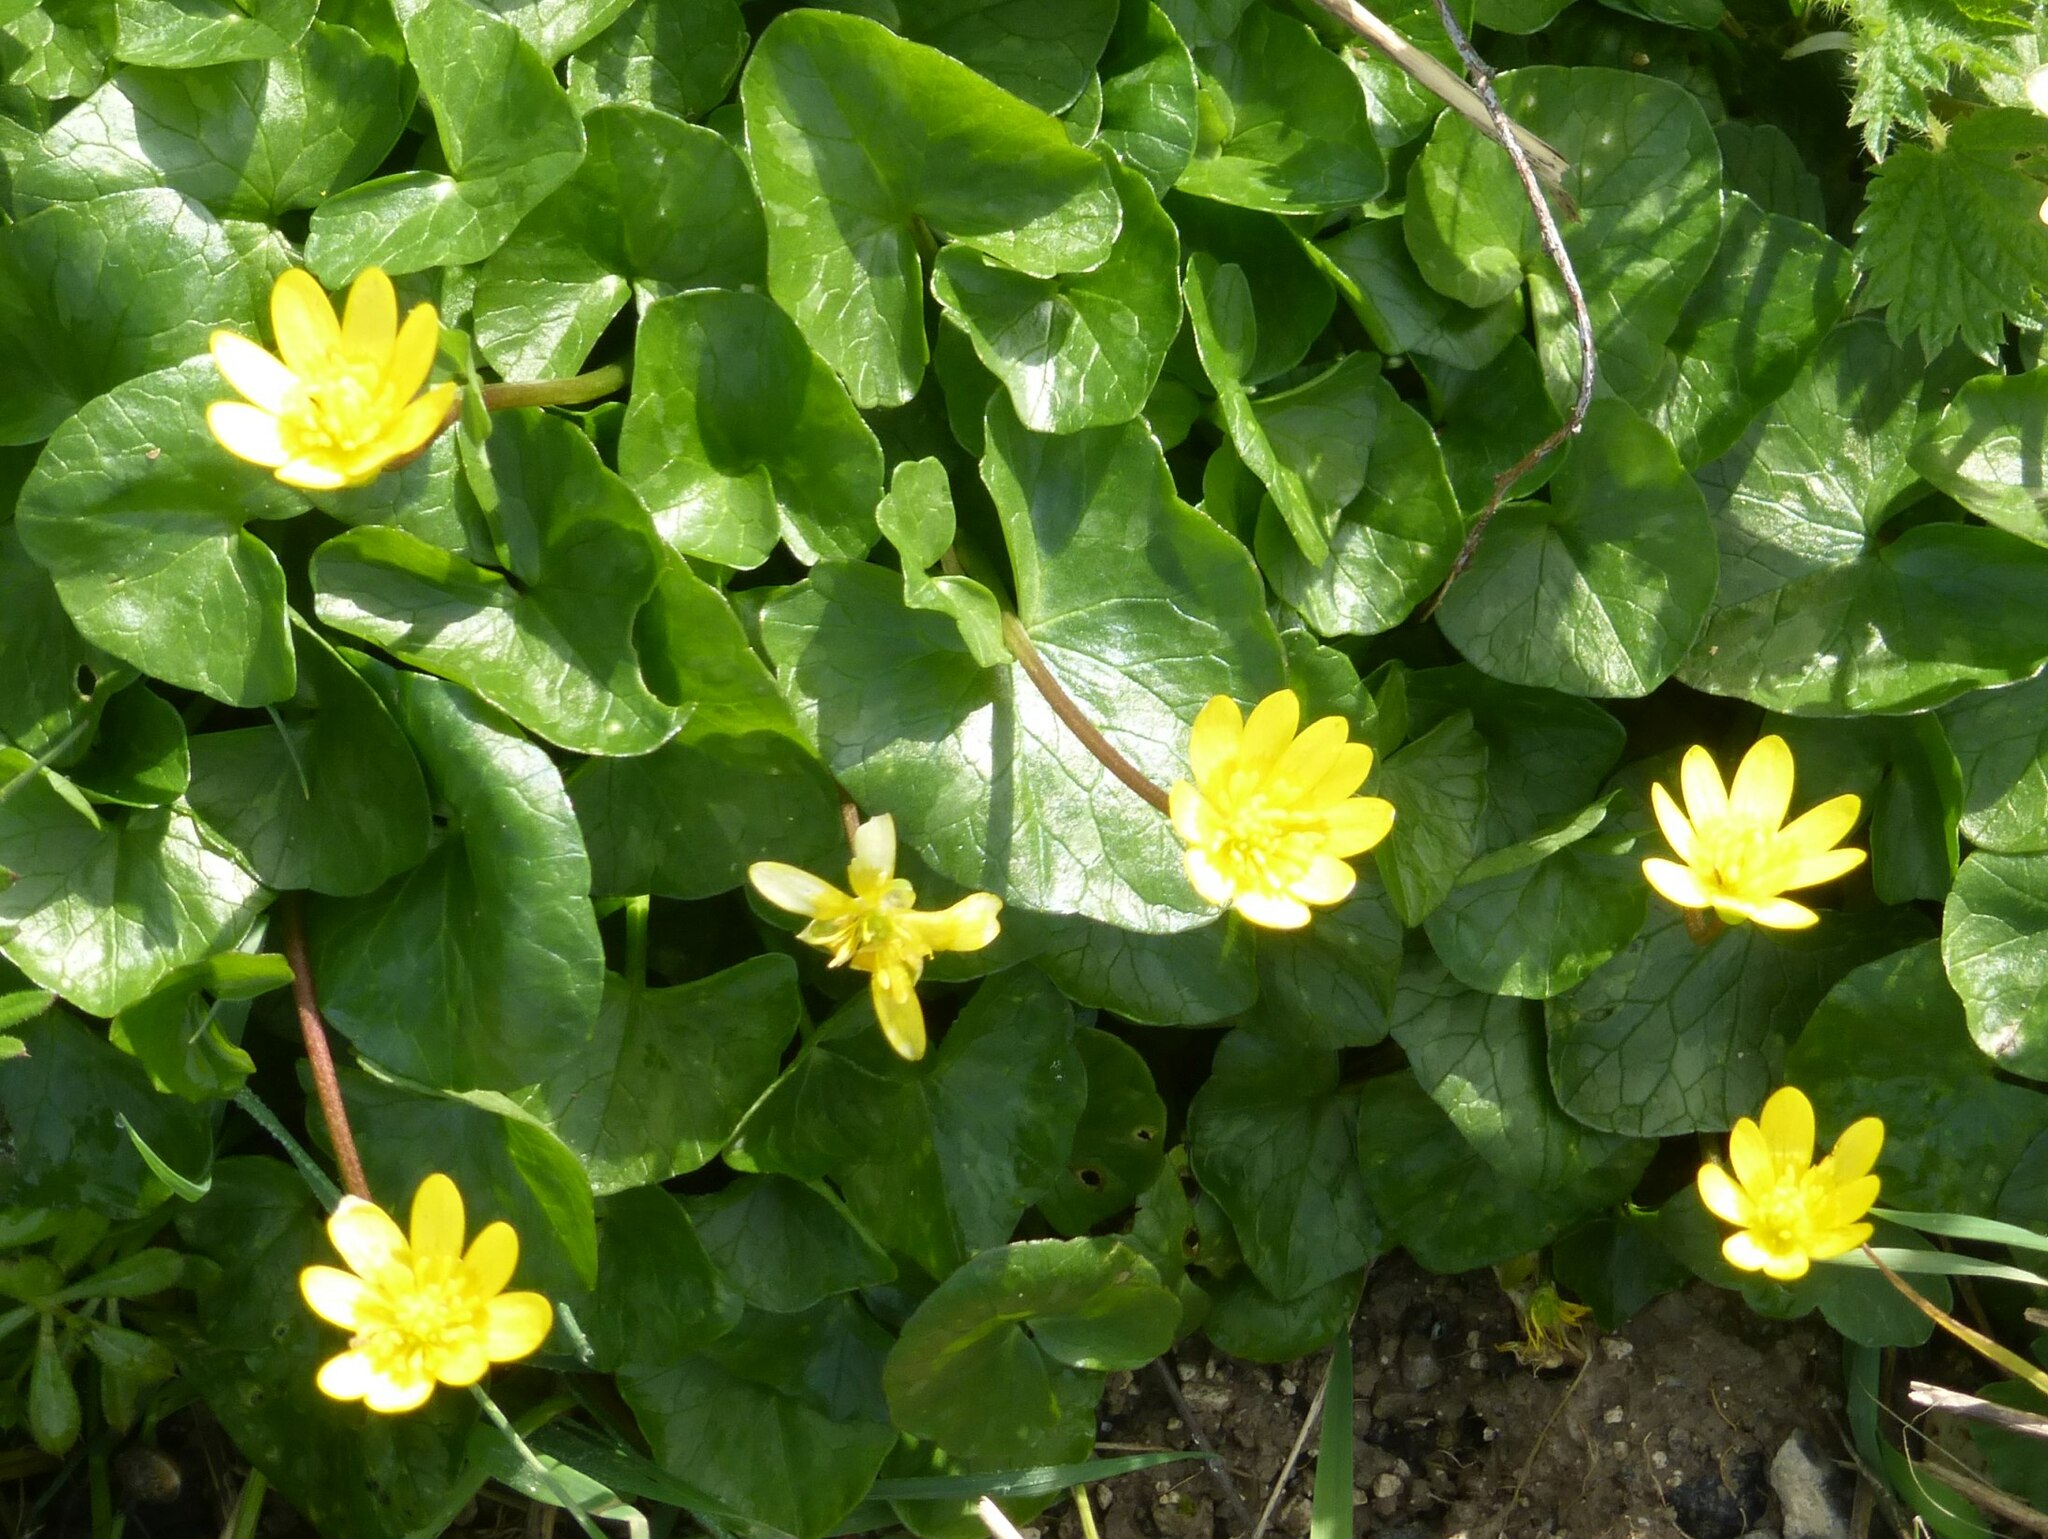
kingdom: Plantae
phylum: Tracheophyta
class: Magnoliopsida
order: Ranunculales
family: Ranunculaceae
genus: Ficaria
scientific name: Ficaria verna
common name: Lesser celandine
